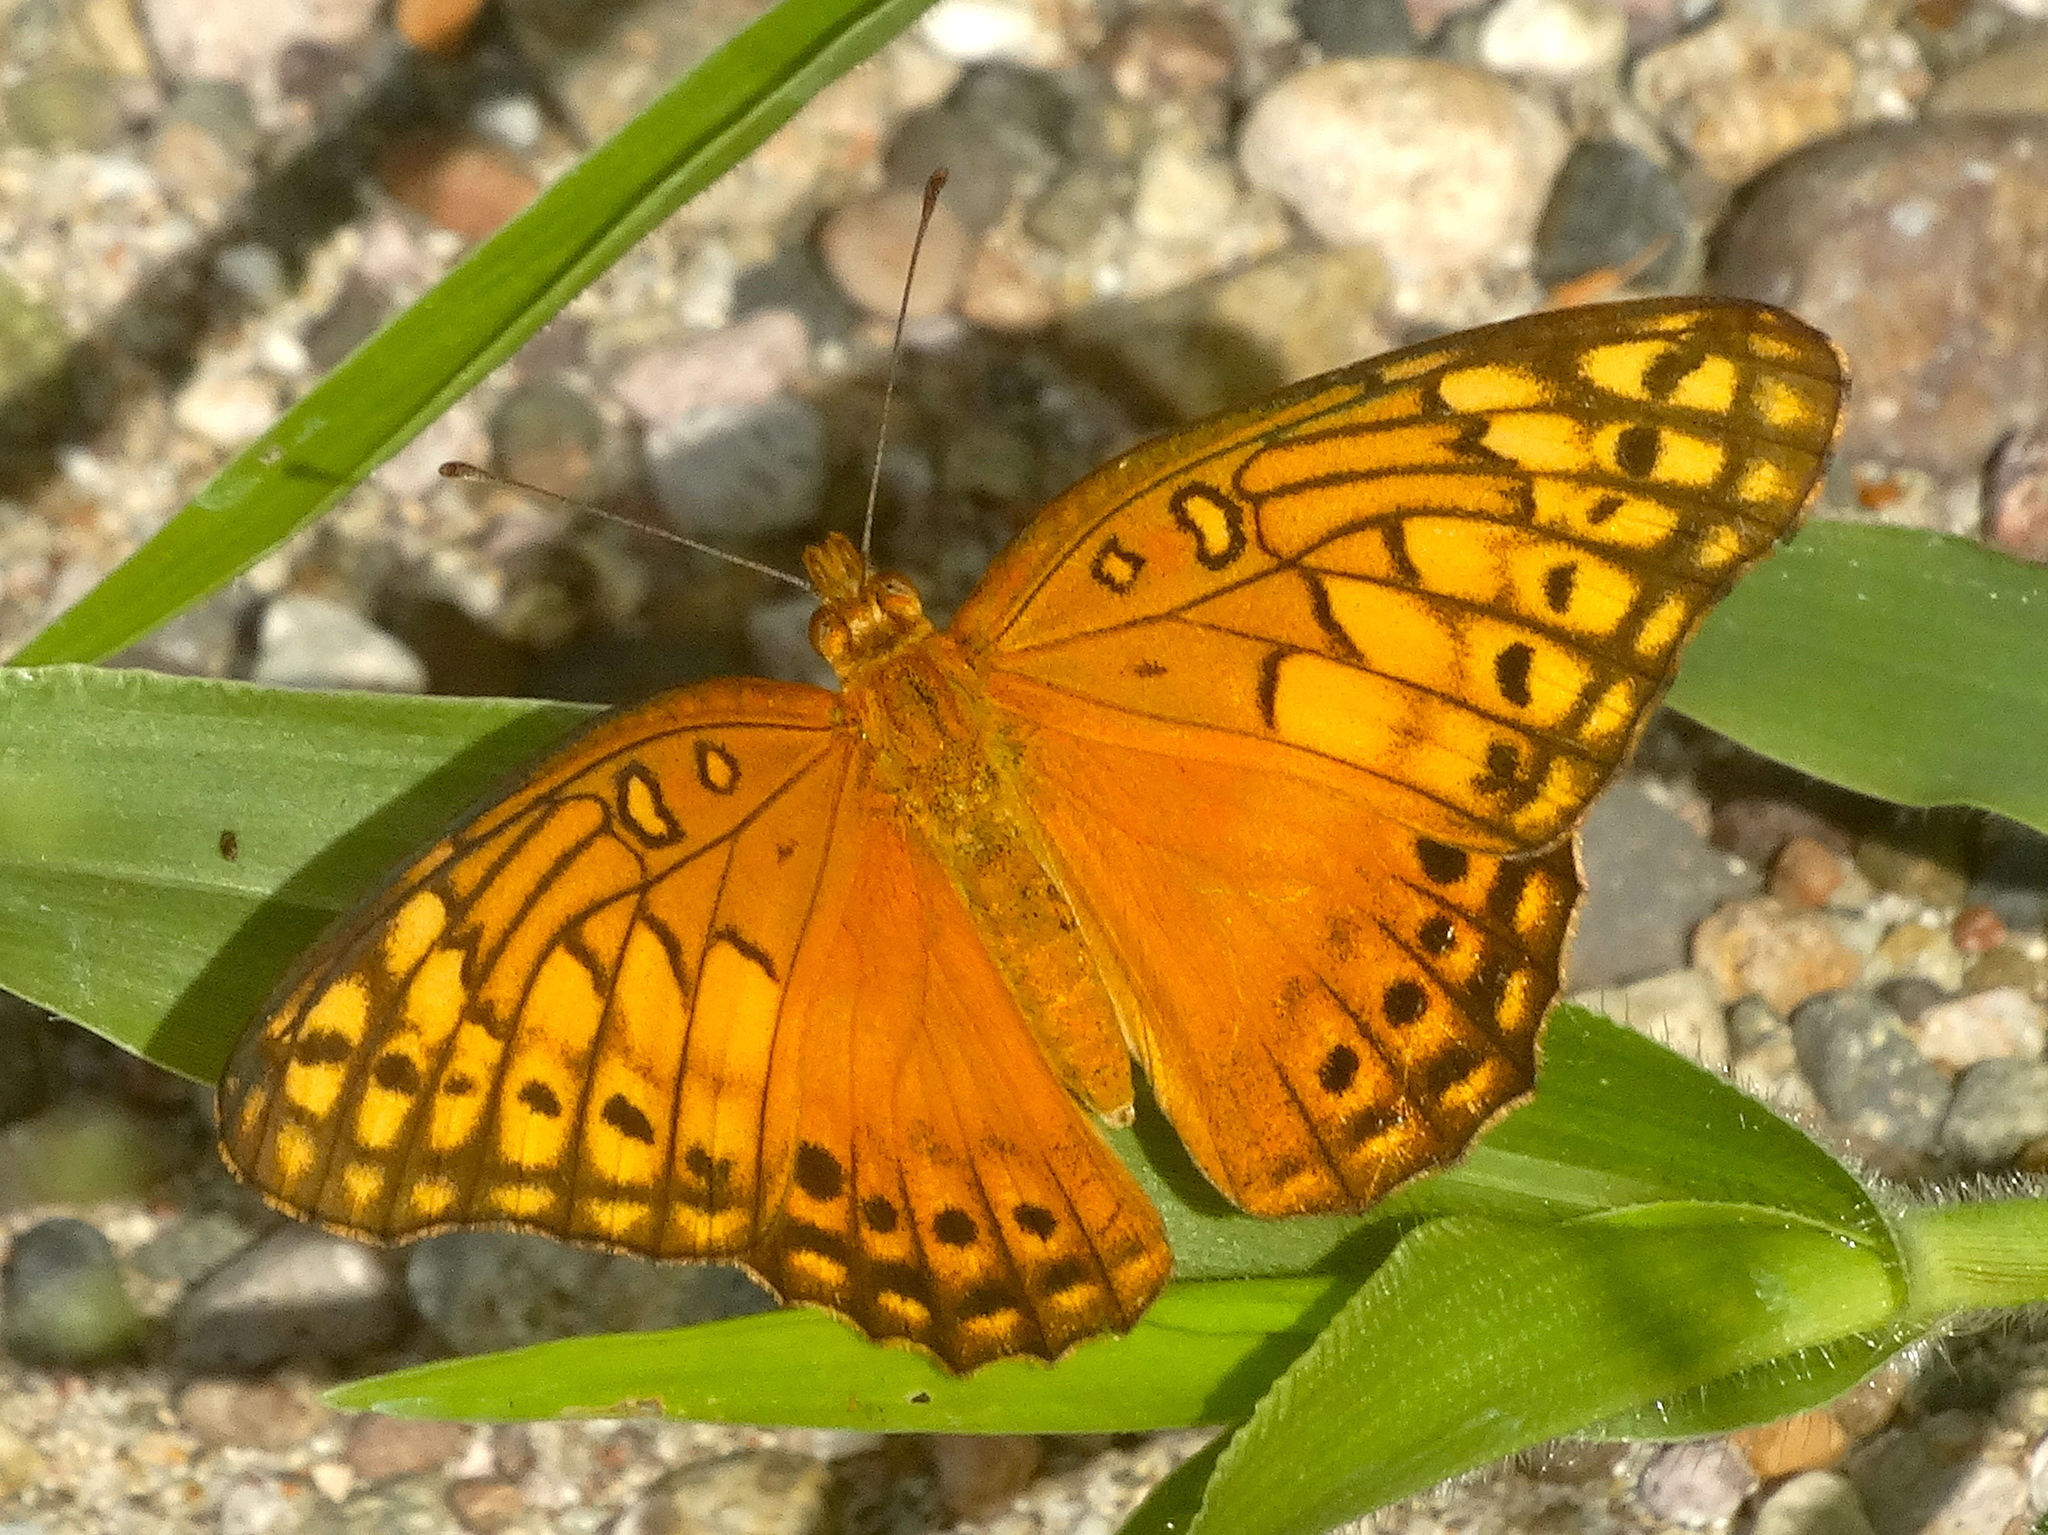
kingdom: Animalia
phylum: Arthropoda
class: Insecta
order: Lepidoptera
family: Nymphalidae
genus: Euptoieta
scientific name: Euptoieta hegesia
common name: Mexican fritillary
